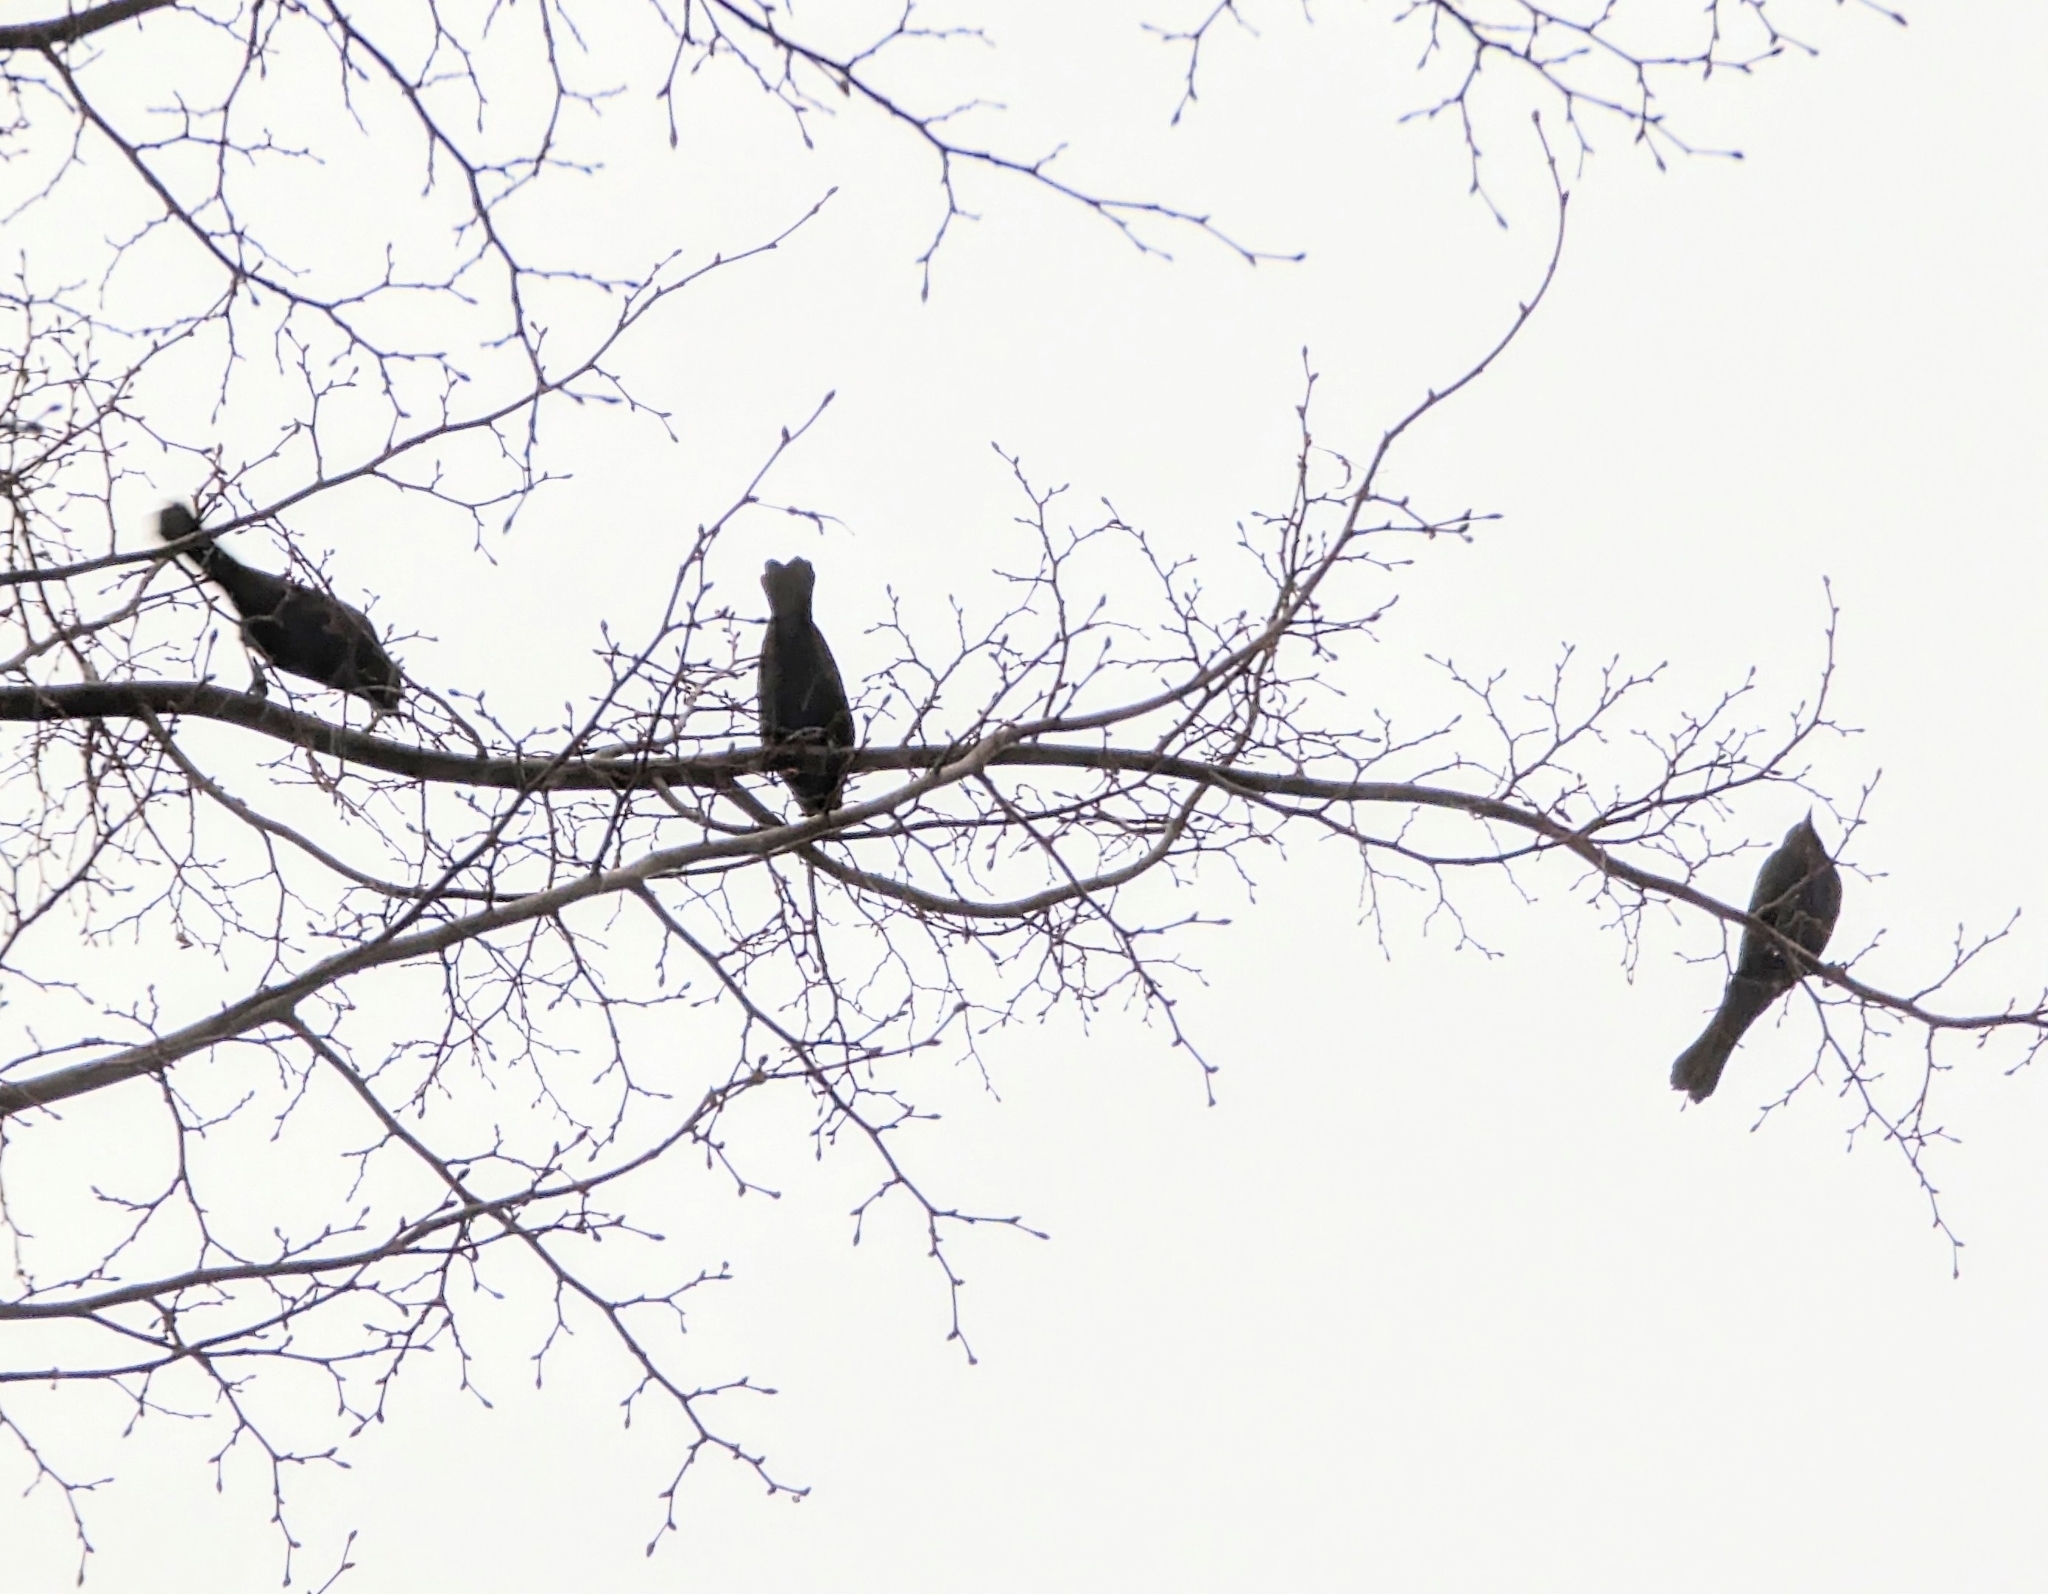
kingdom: Animalia
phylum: Chordata
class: Aves
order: Passeriformes
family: Icteridae
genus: Agelaius
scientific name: Agelaius phoeniceus
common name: Red-winged blackbird
